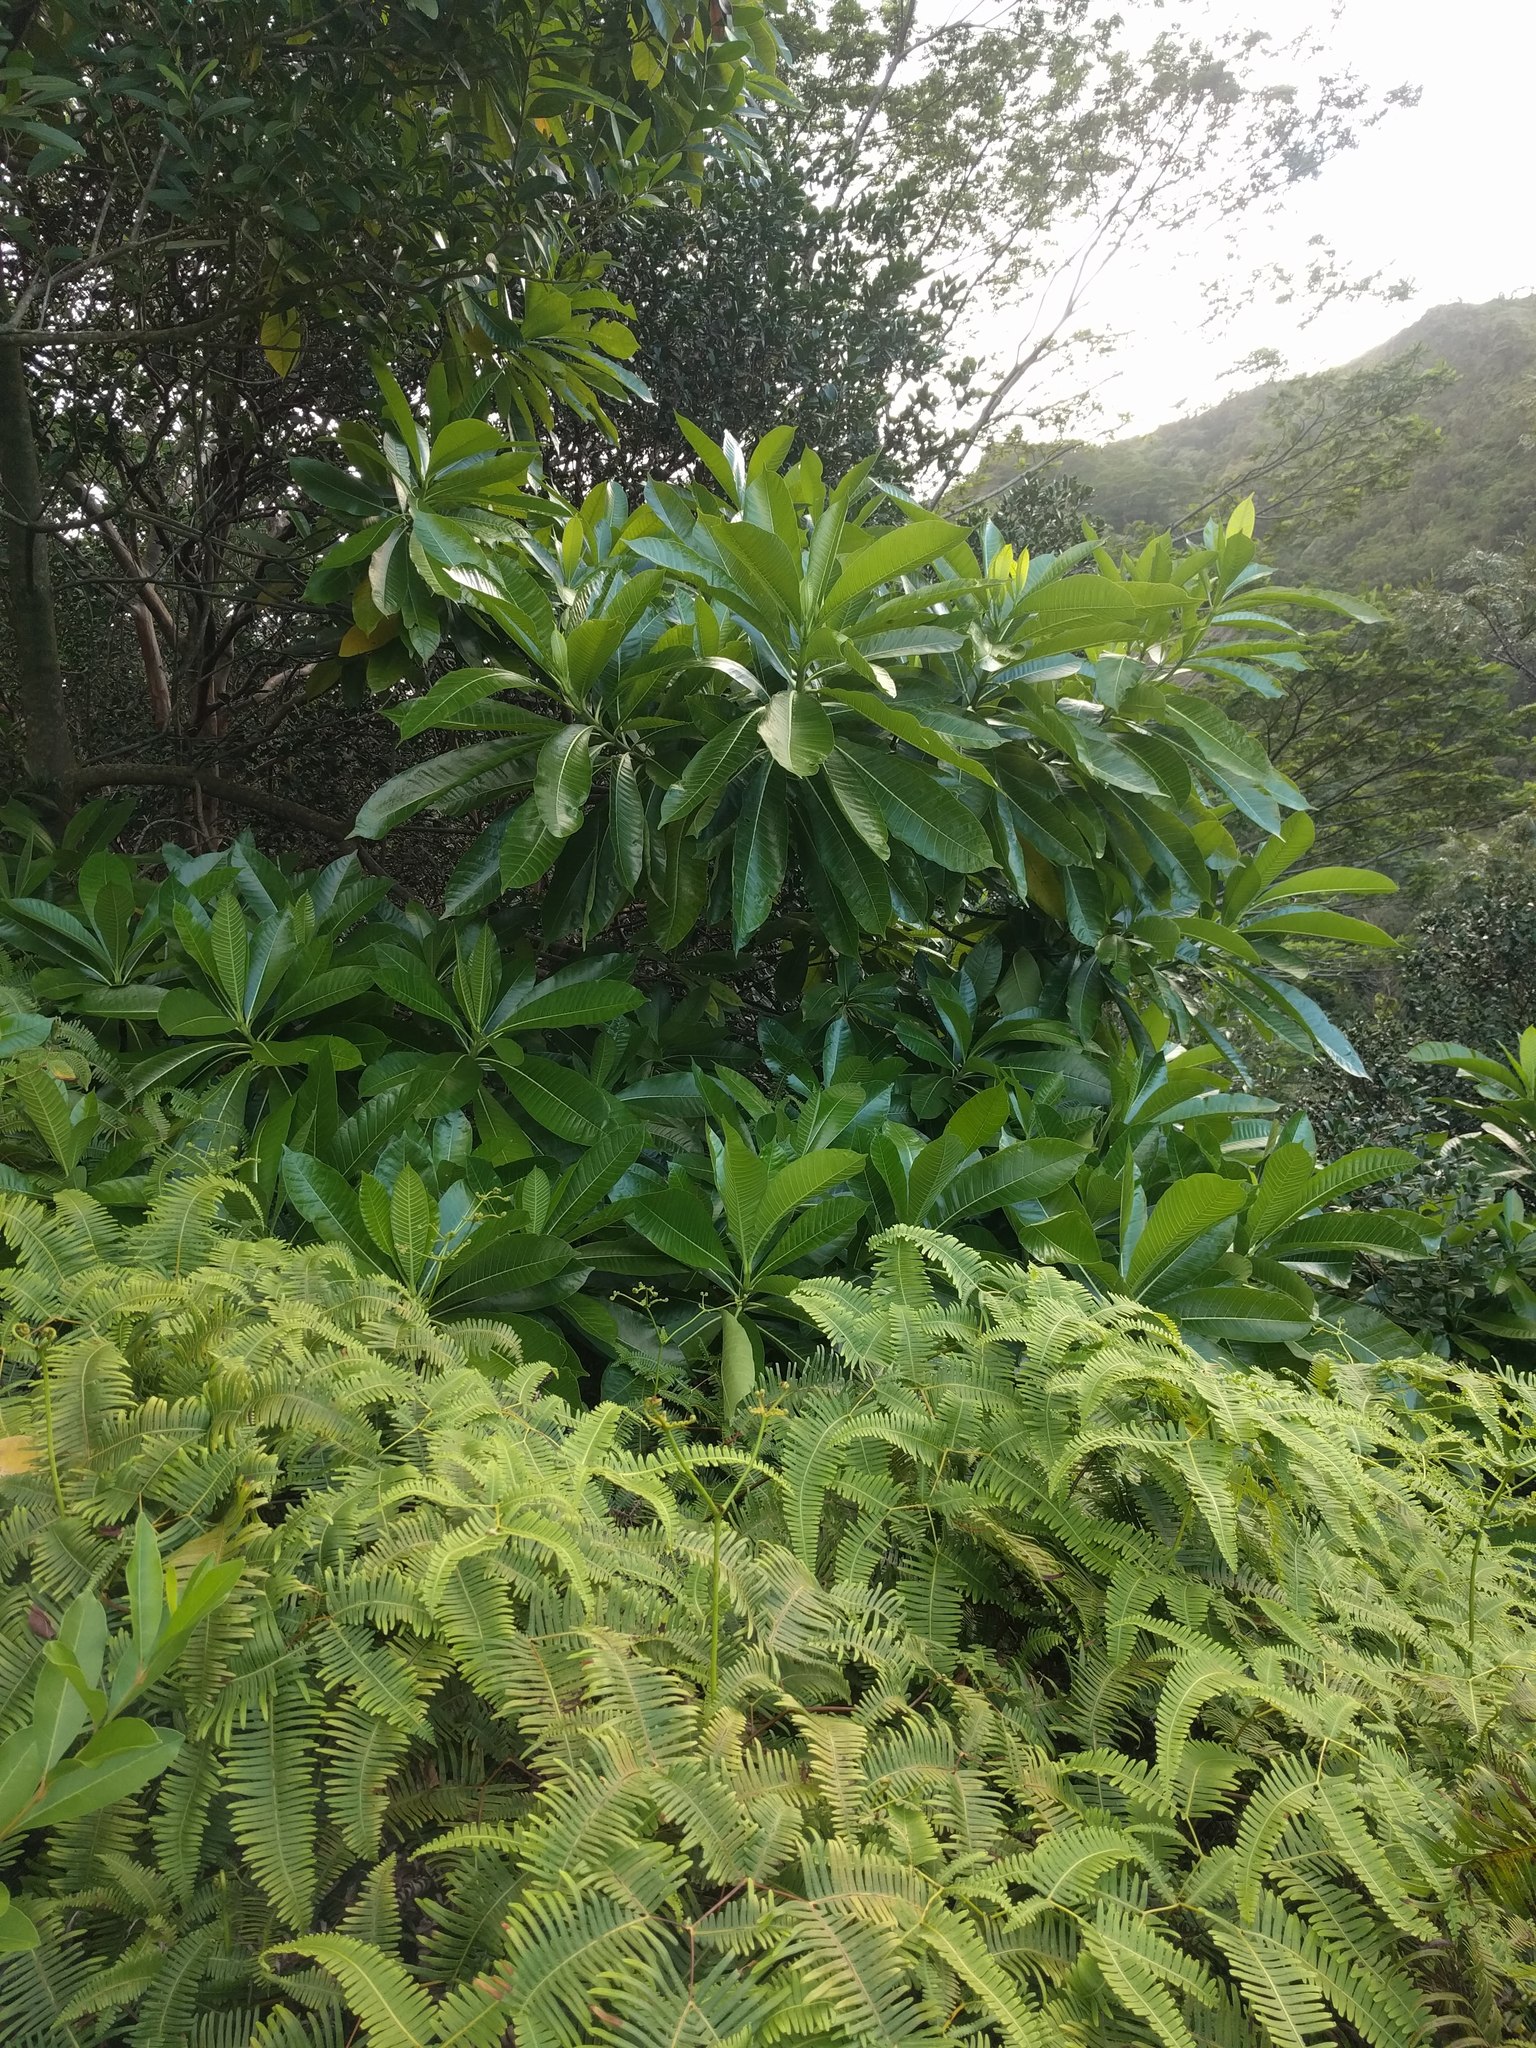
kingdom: Plantae
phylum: Tracheophyta
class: Polypodiopsida
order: Gleicheniales
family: Gleicheniaceae
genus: Dicranopteris
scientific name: Dicranopteris linearis
